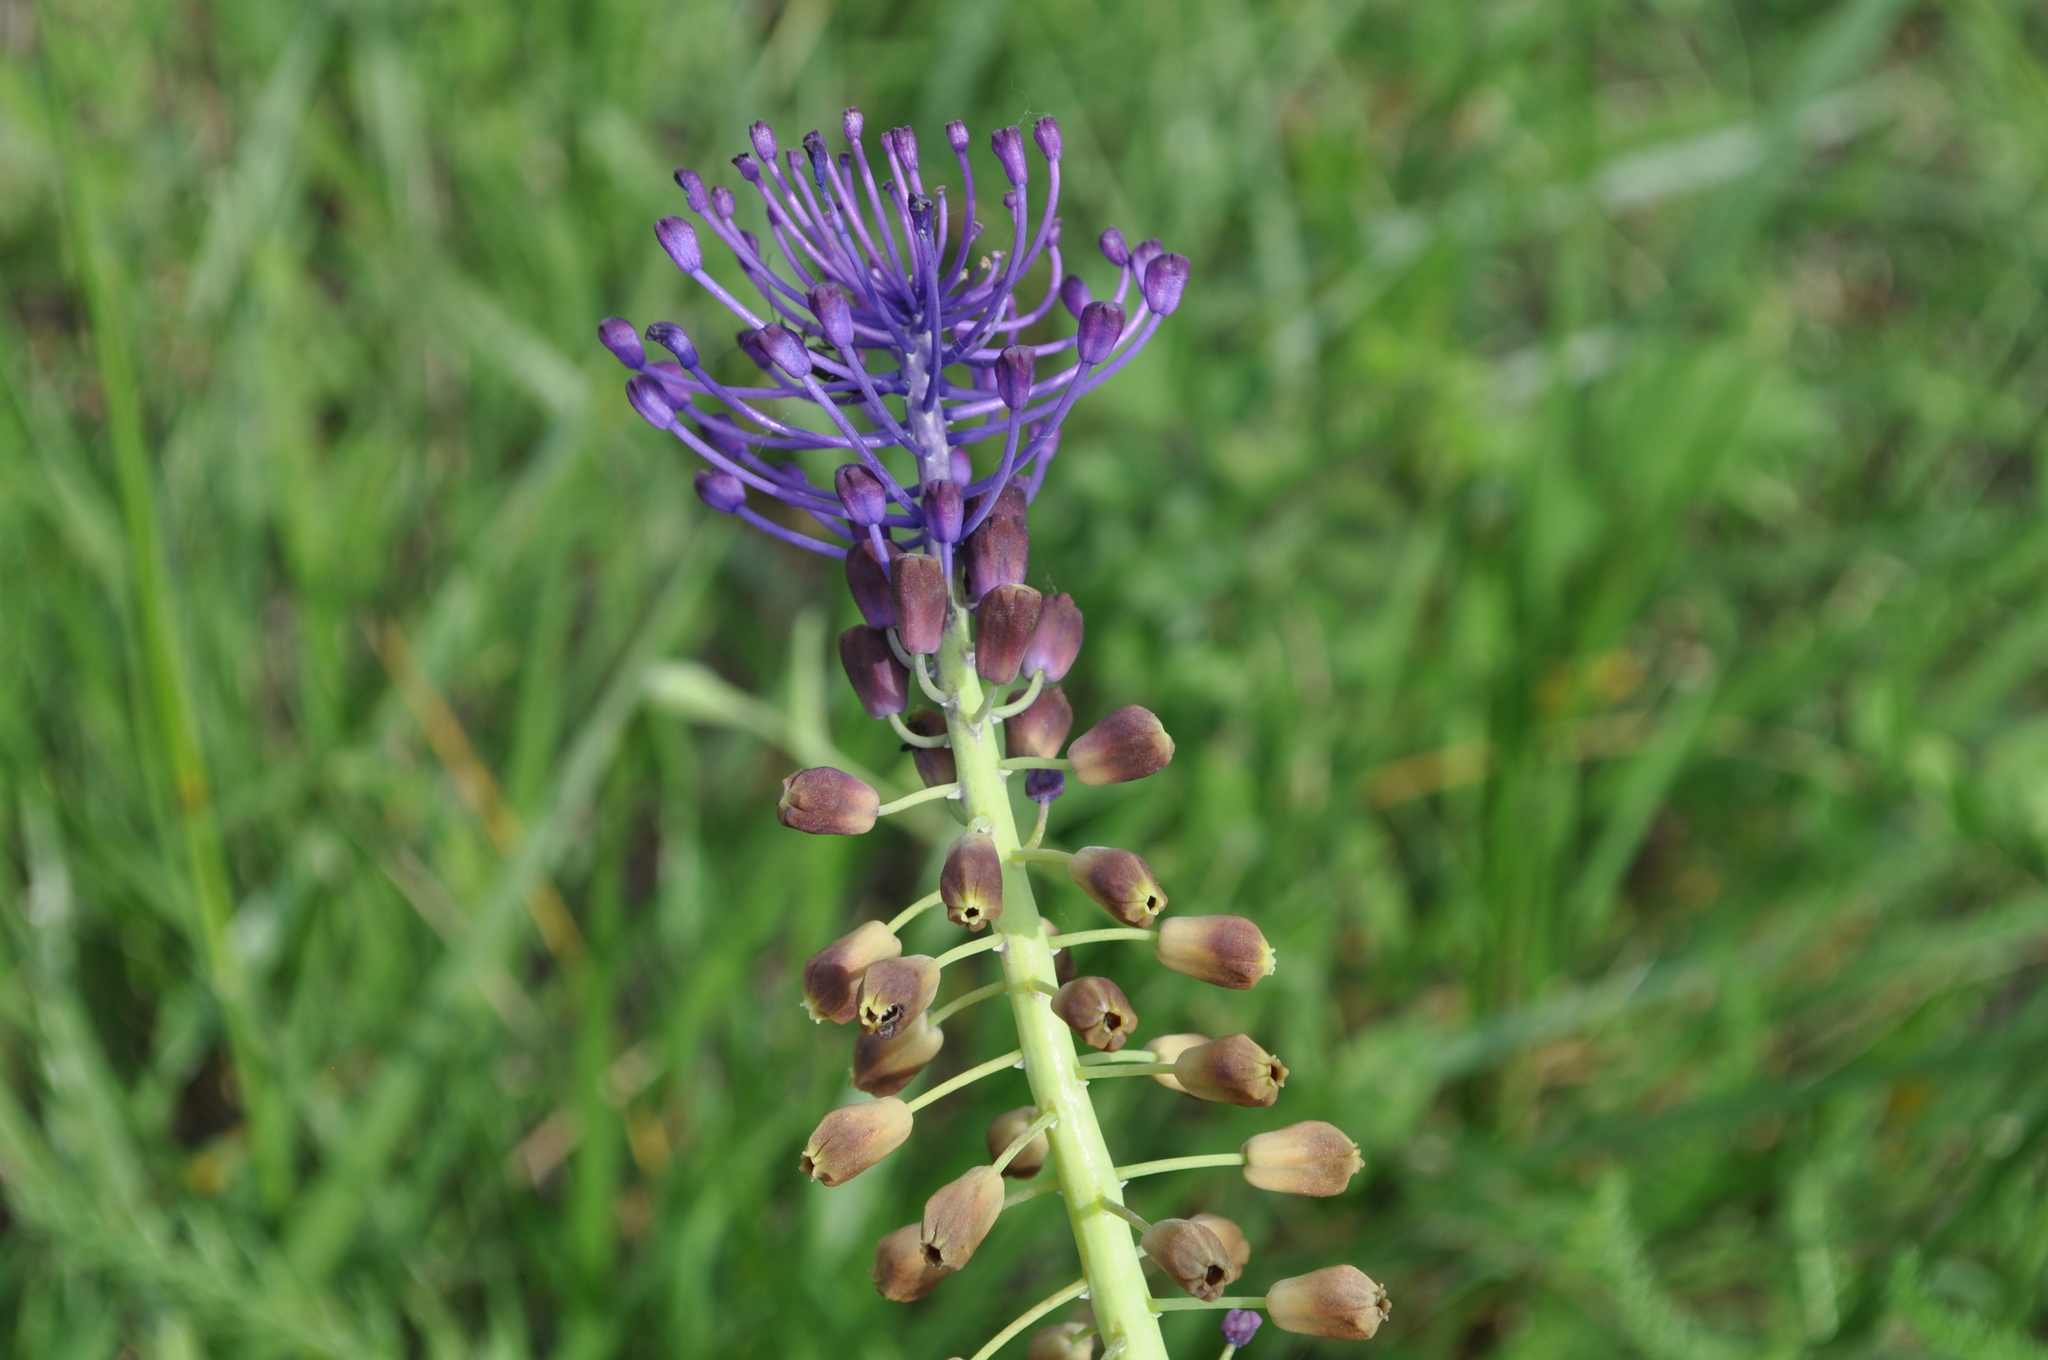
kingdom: Plantae
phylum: Tracheophyta
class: Liliopsida
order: Asparagales
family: Asparagaceae
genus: Muscari
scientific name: Muscari comosum
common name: Tassel hyacinth
